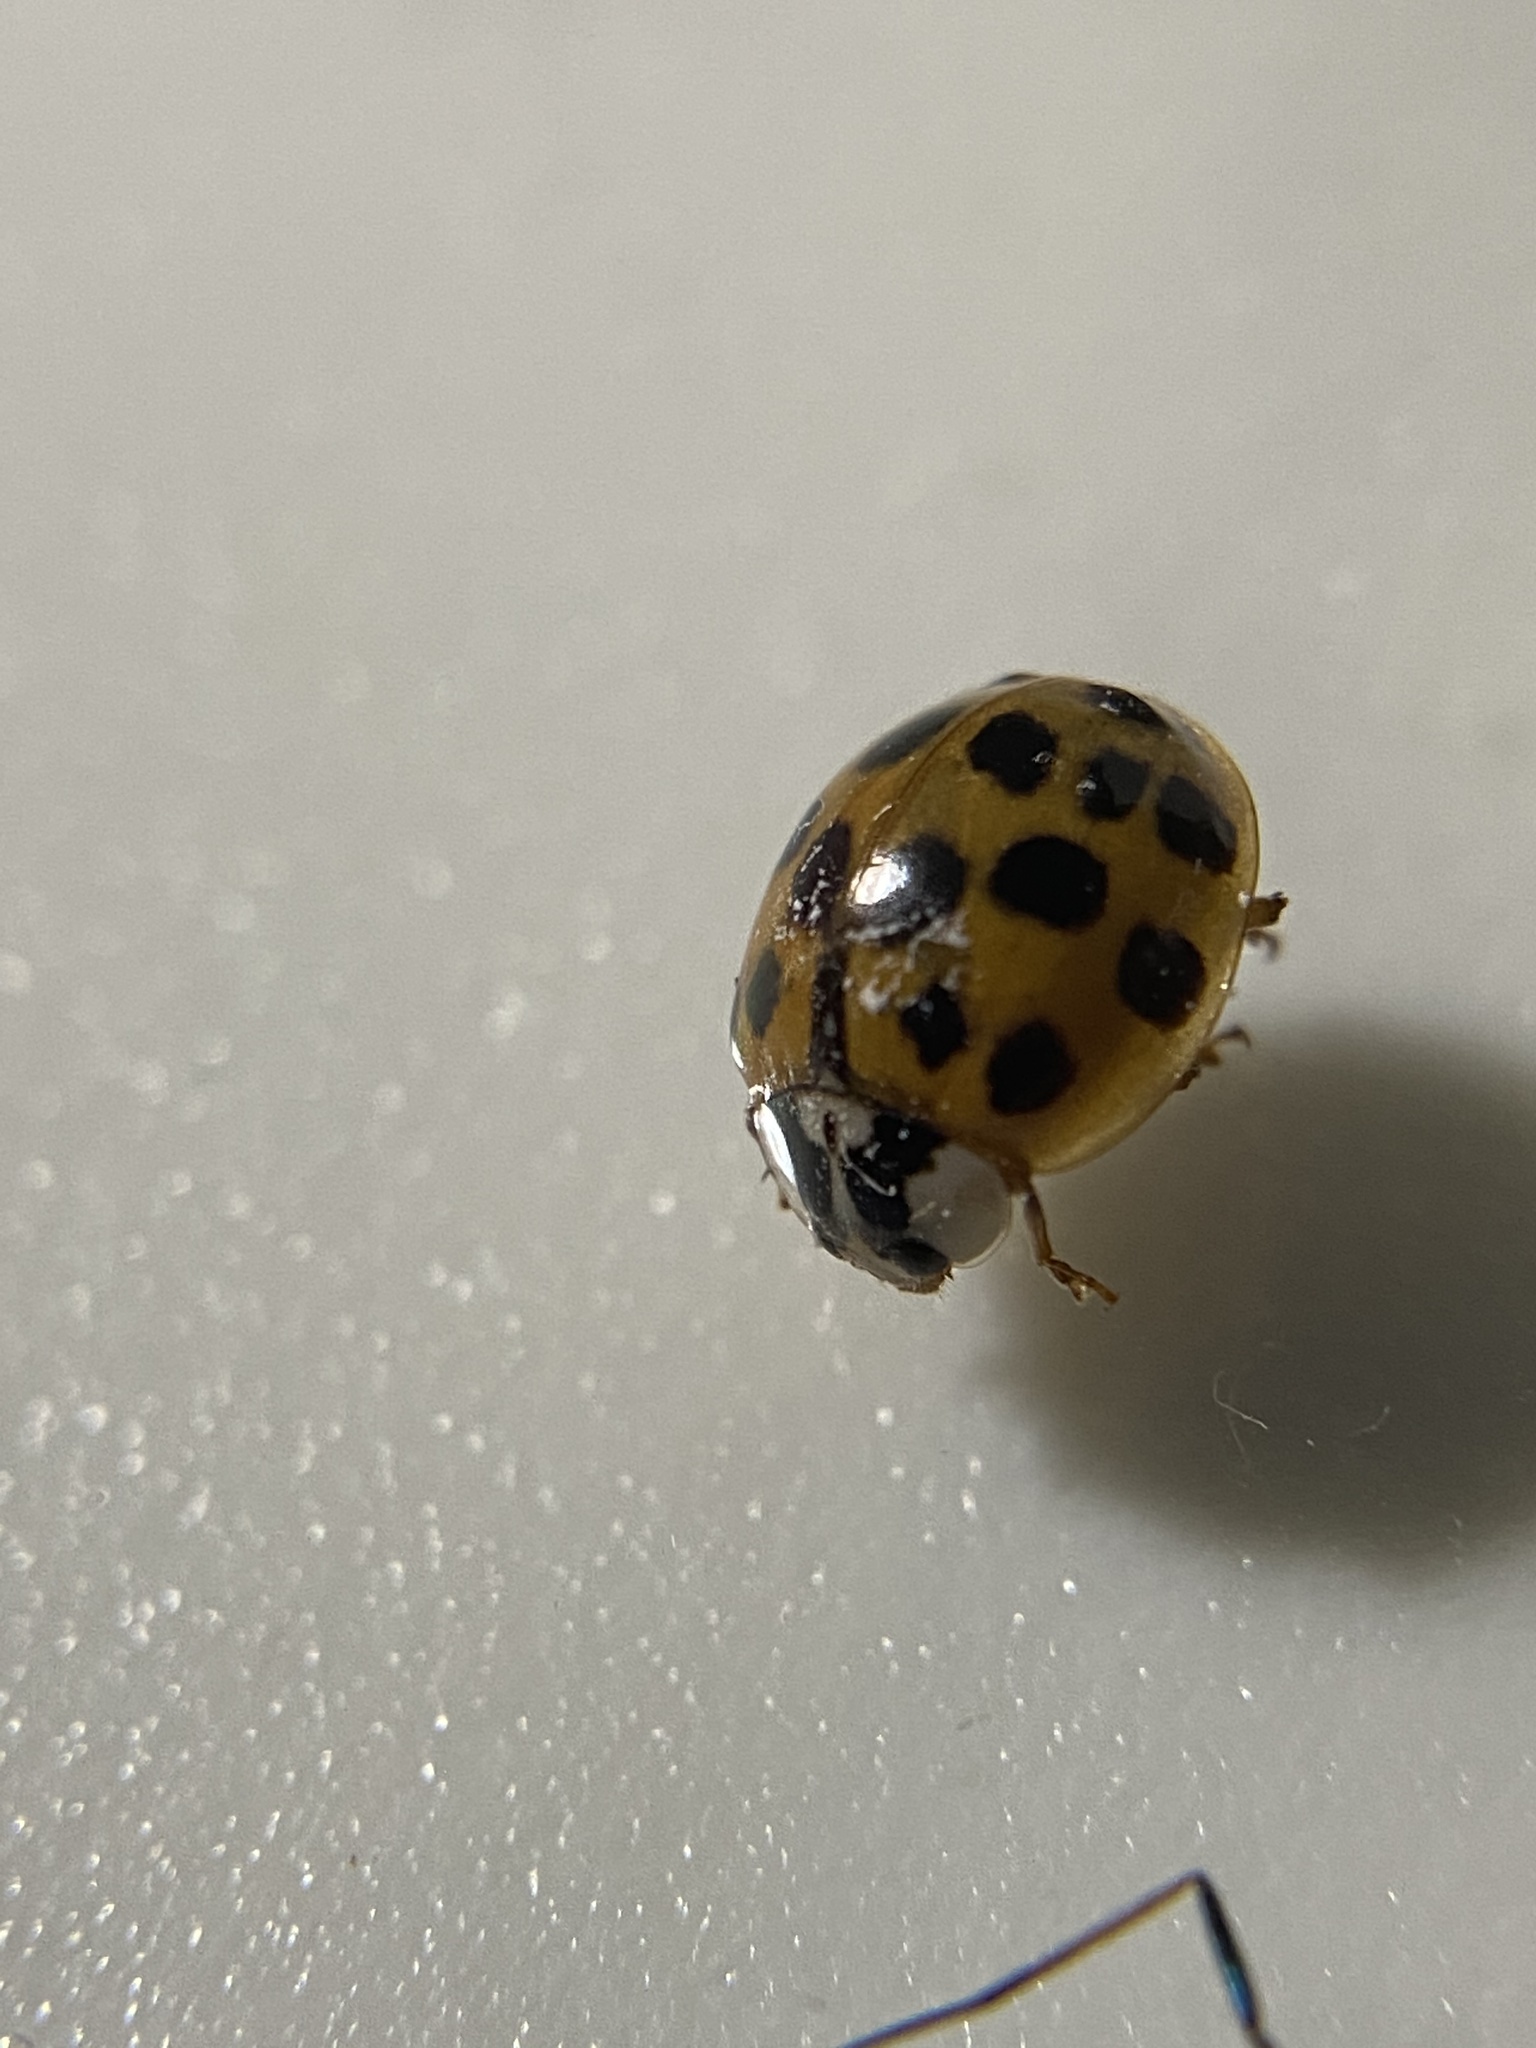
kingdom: Animalia
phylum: Arthropoda
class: Insecta
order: Coleoptera
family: Coccinellidae
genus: Harmonia
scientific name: Harmonia axyridis
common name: Harlequin ladybird
